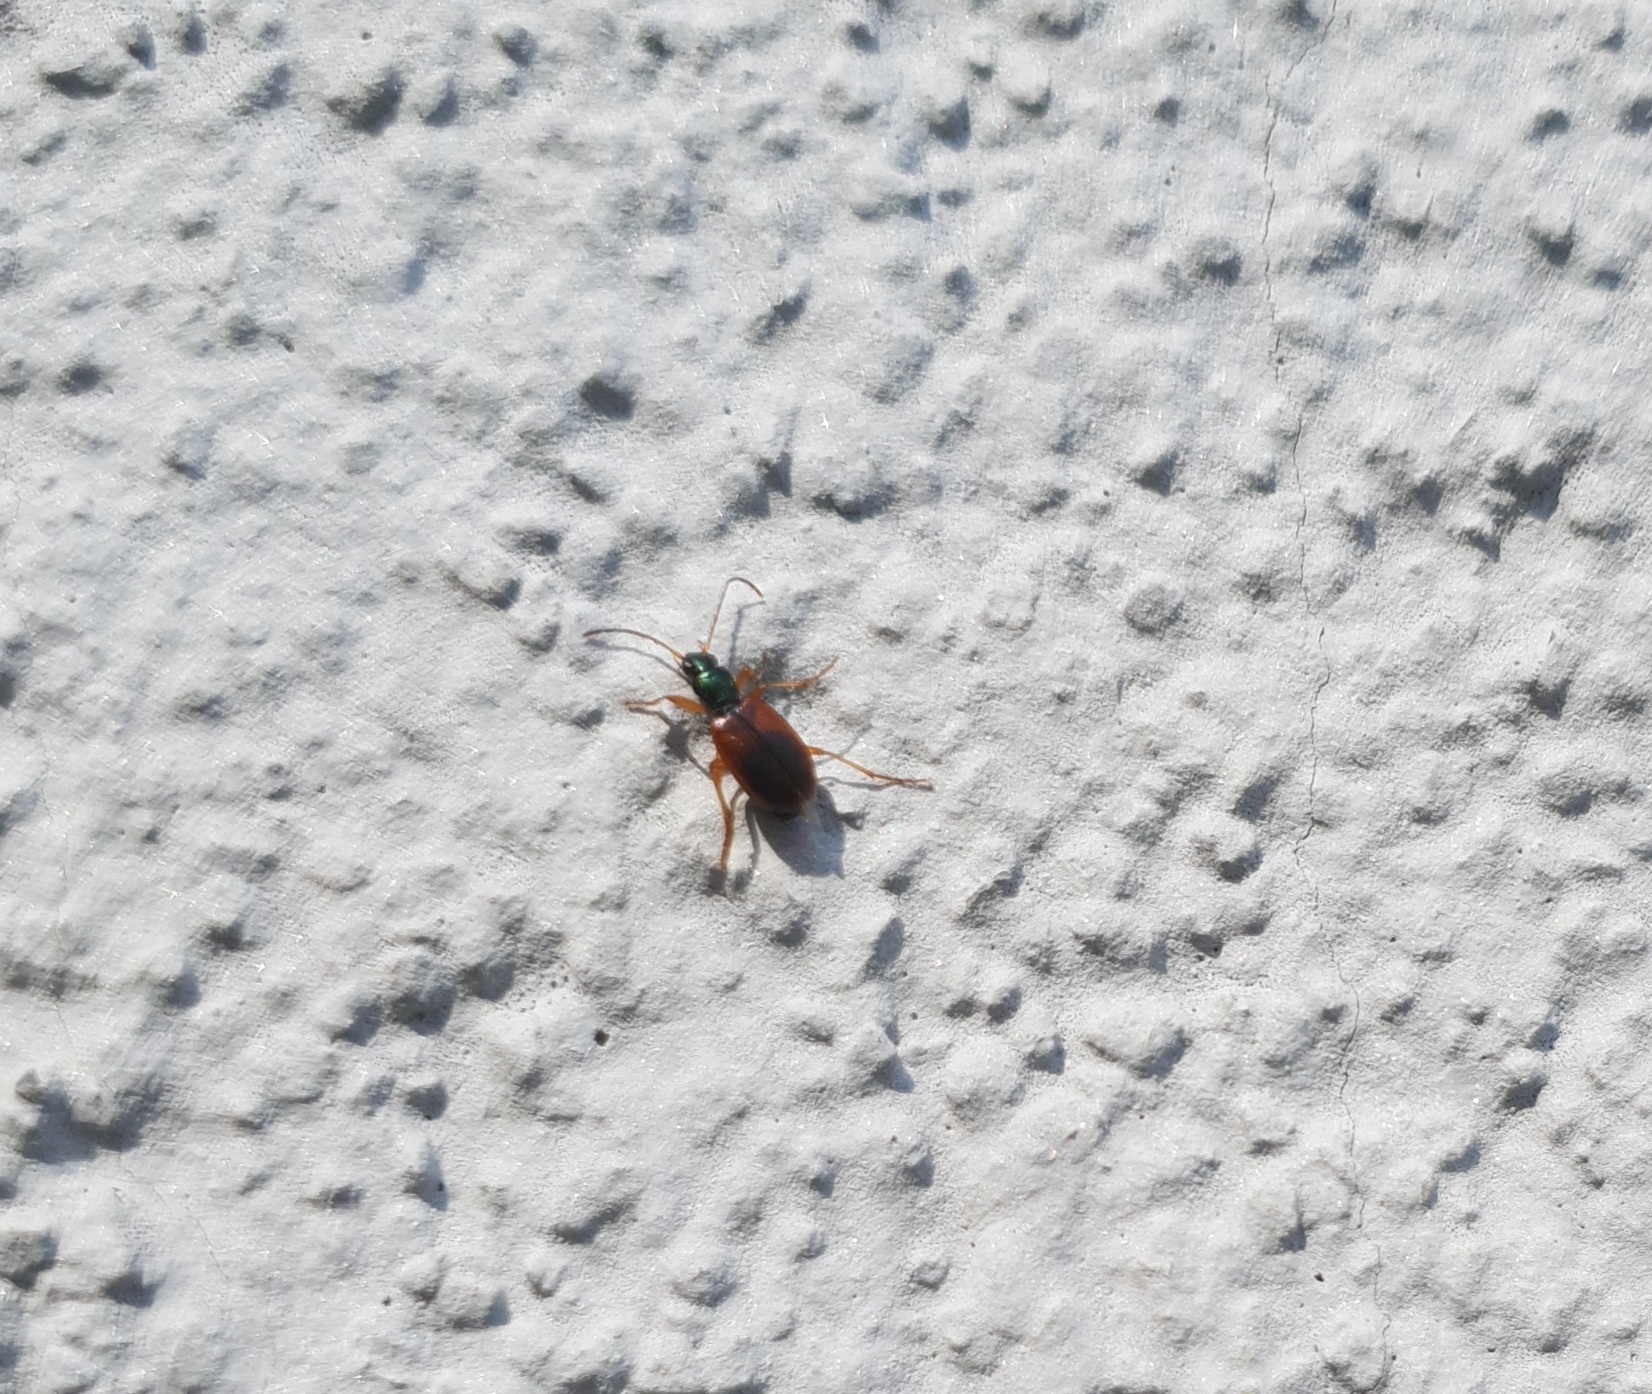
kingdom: Animalia
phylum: Arthropoda
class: Insecta
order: Coleoptera
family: Carabidae
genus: Anchomenus
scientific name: Anchomenus dorsalis
